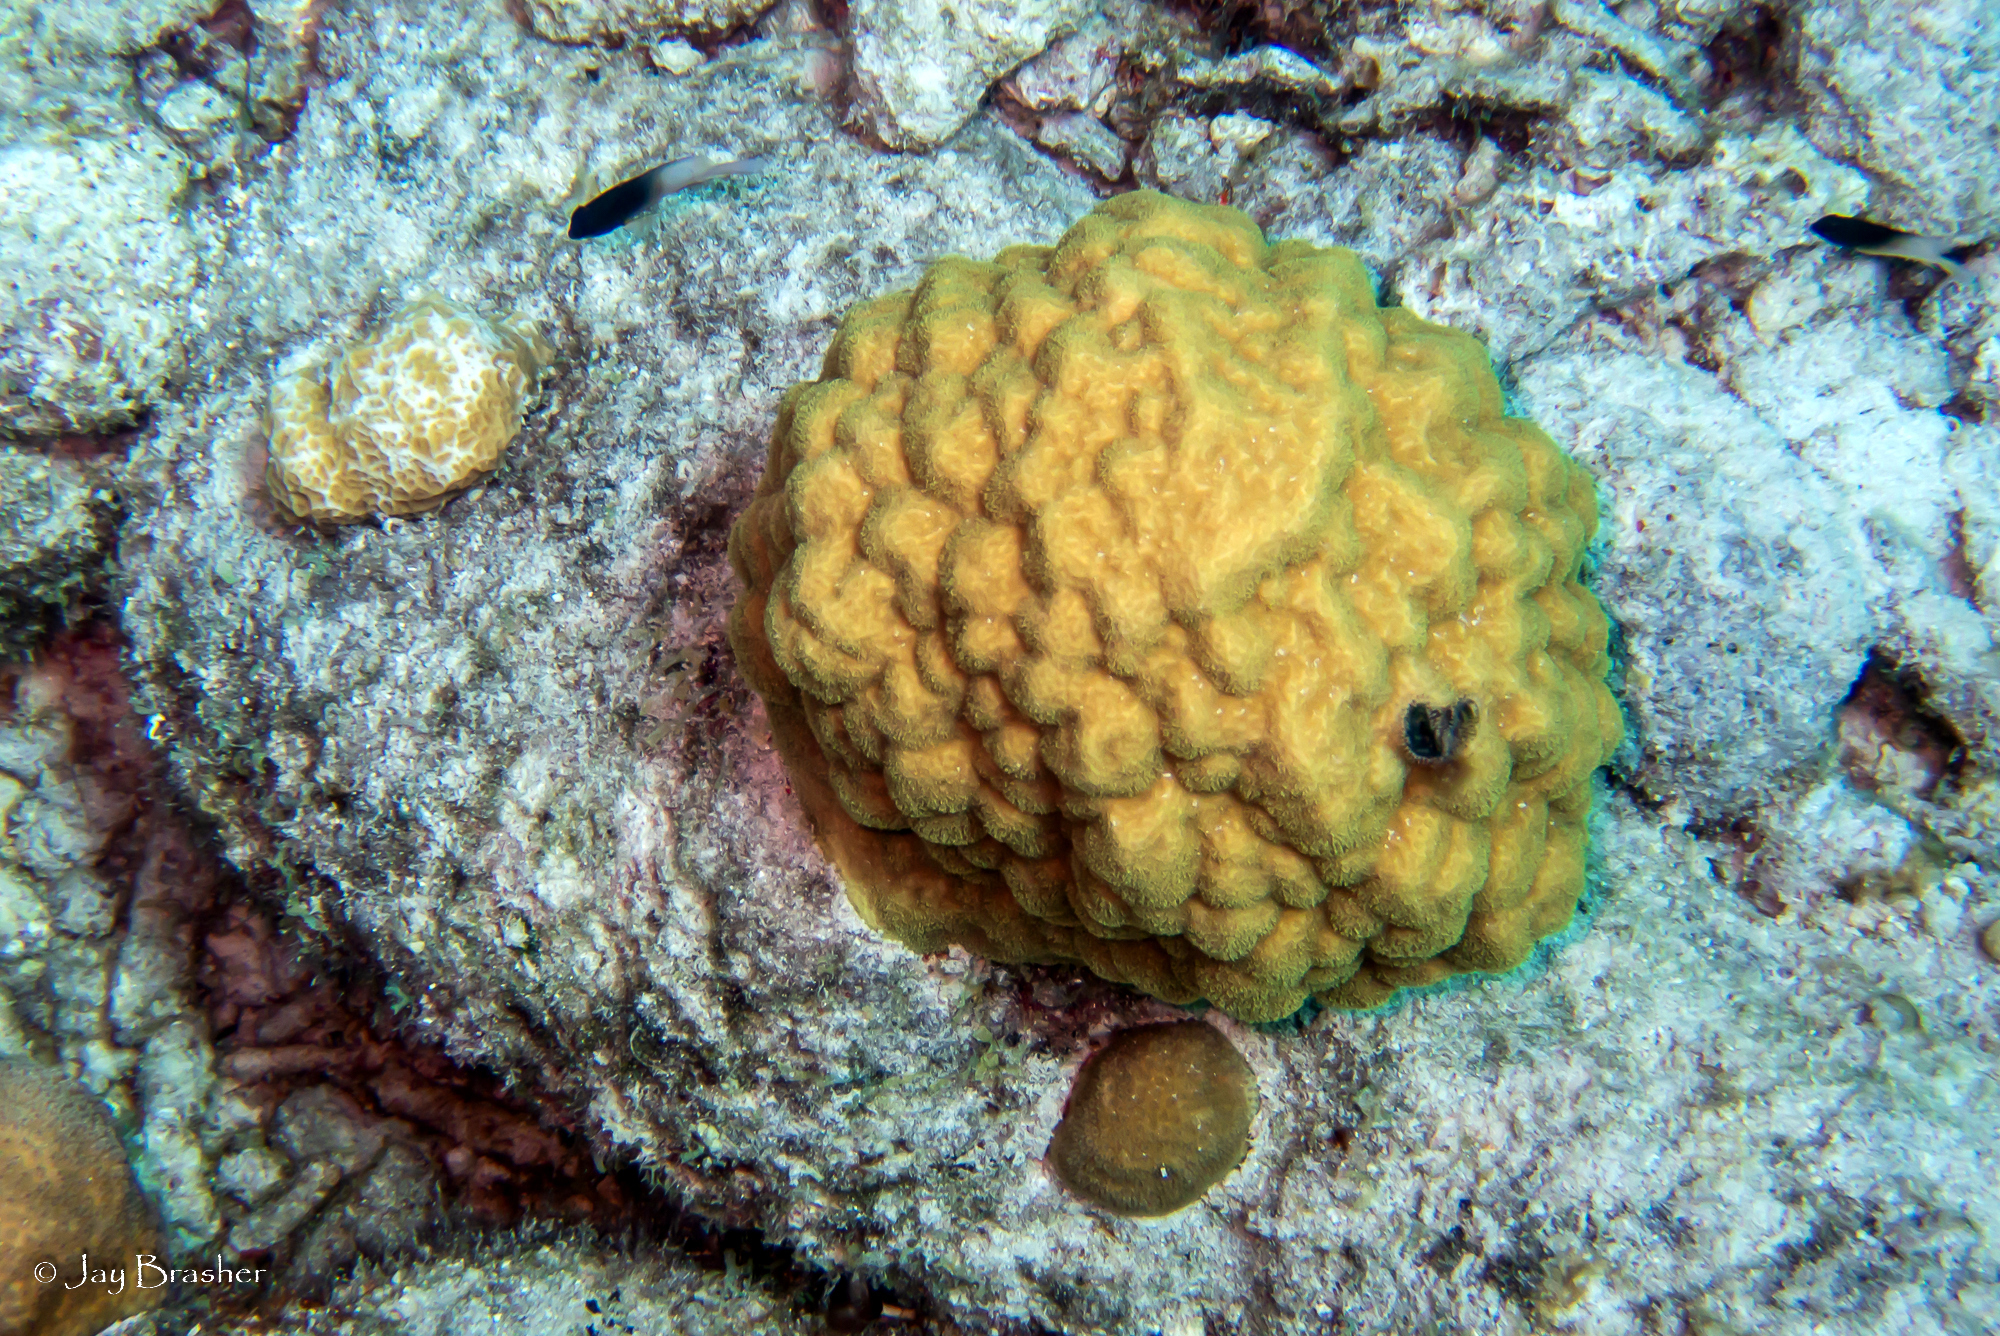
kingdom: Animalia
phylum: Cnidaria
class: Anthozoa
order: Scleractinia
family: Poritidae
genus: Porites
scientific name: Porites astreoides
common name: Mustard hill coral
